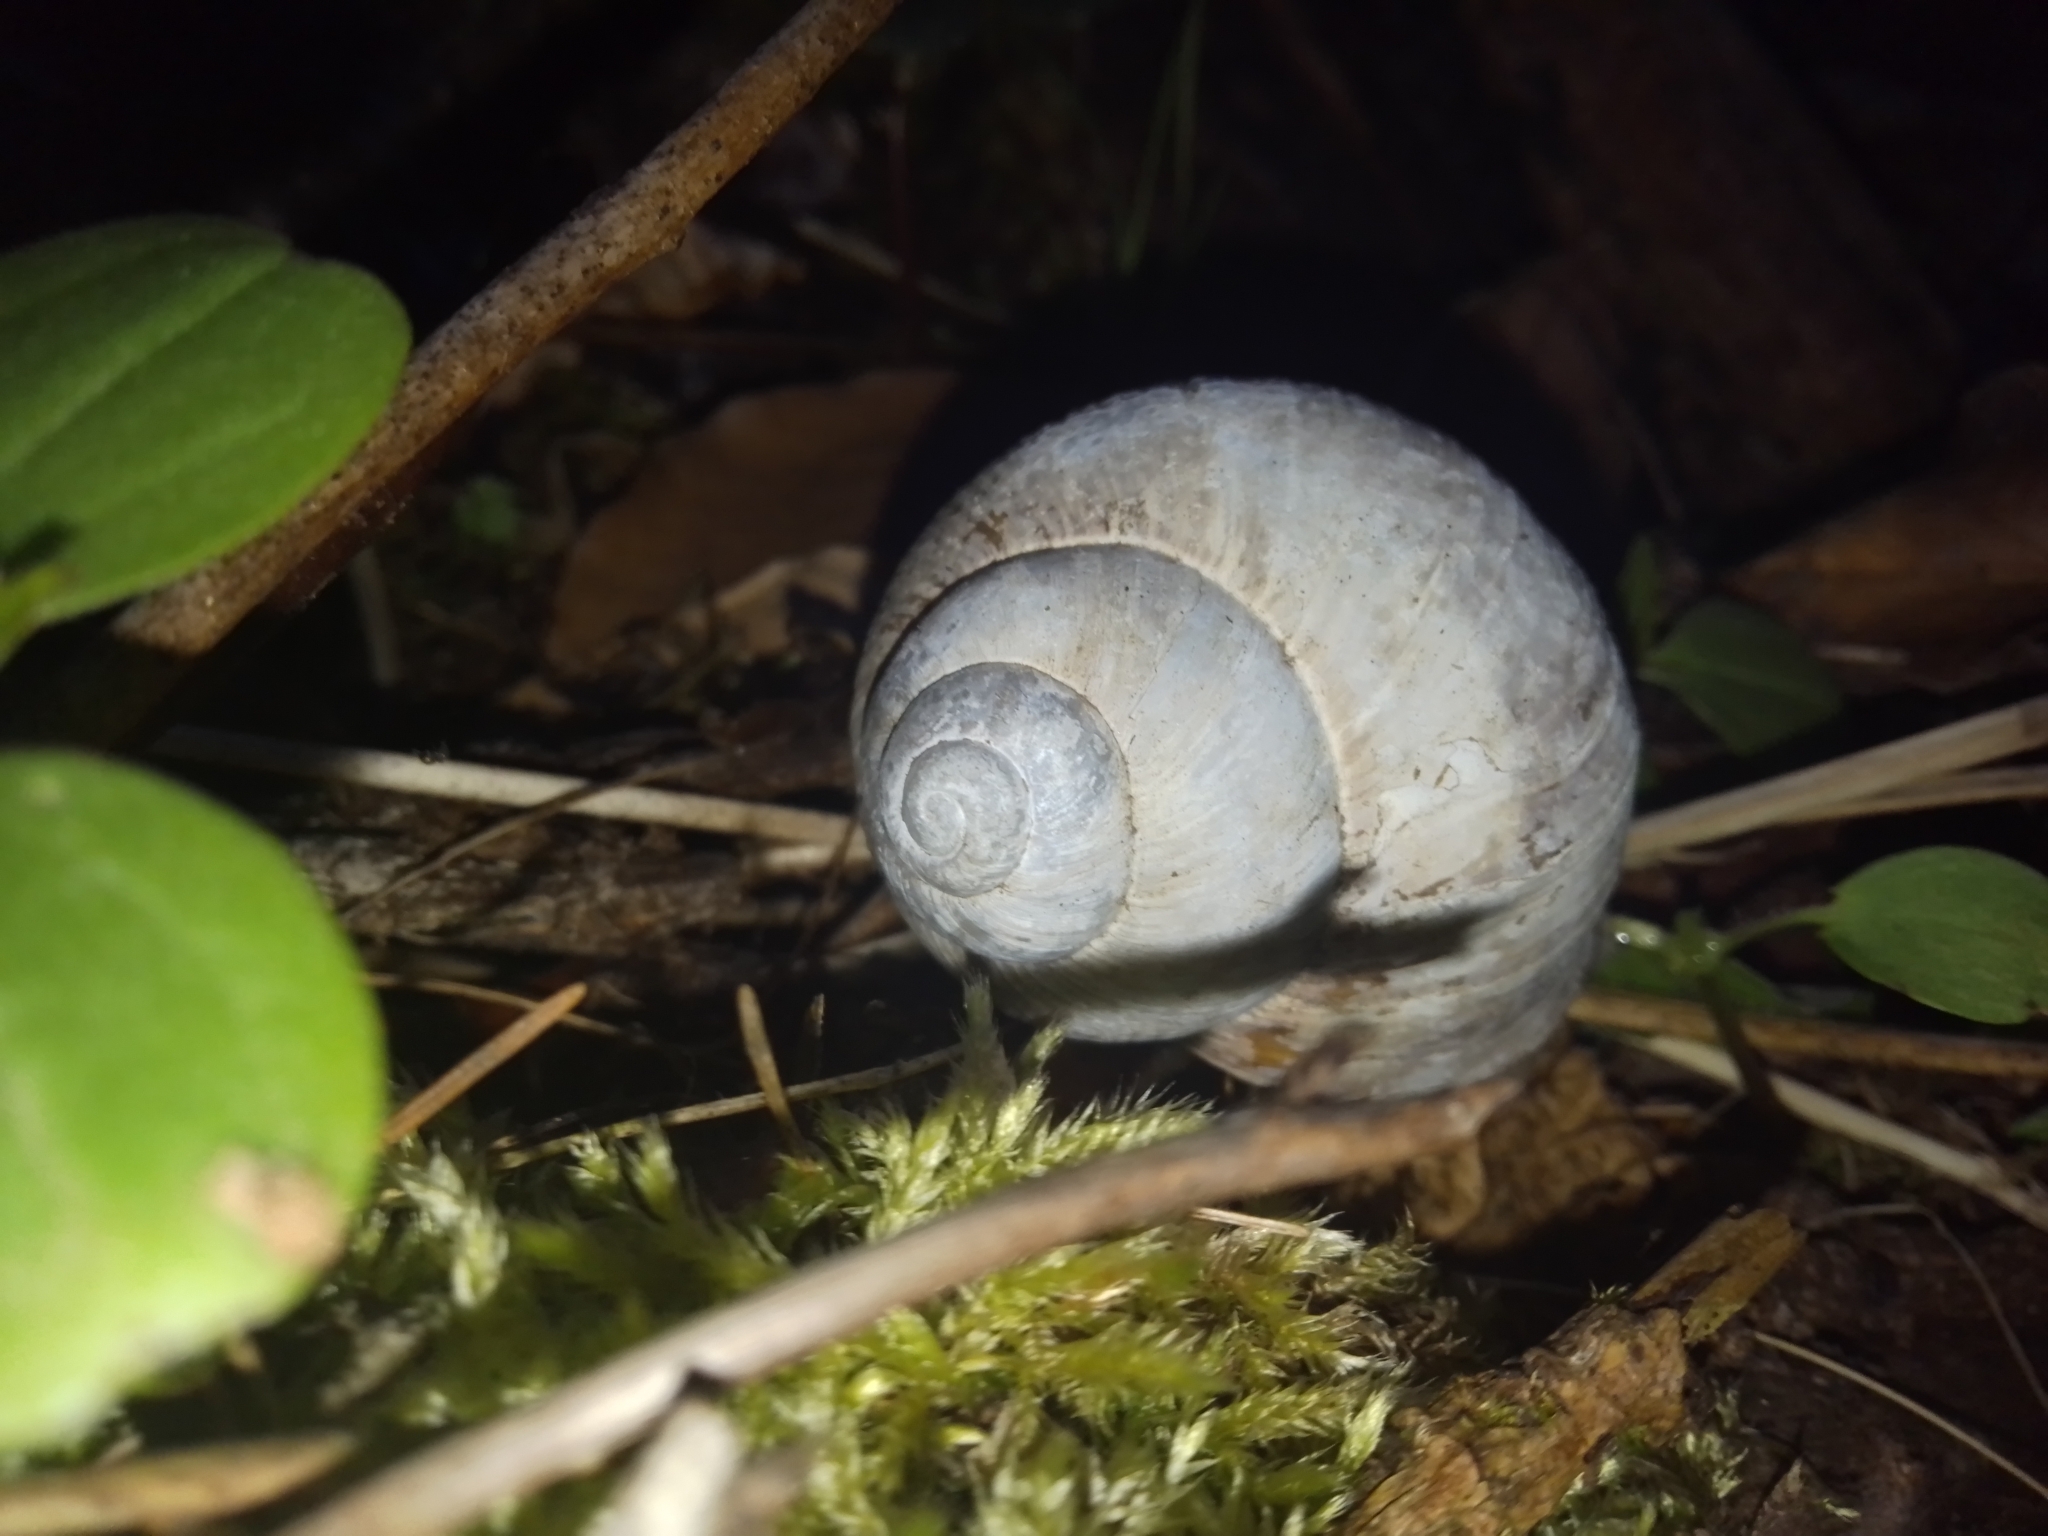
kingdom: Animalia
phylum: Mollusca
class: Gastropoda
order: Stylommatophora
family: Helicidae
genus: Helix
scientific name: Helix pomatia
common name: Roman snail
